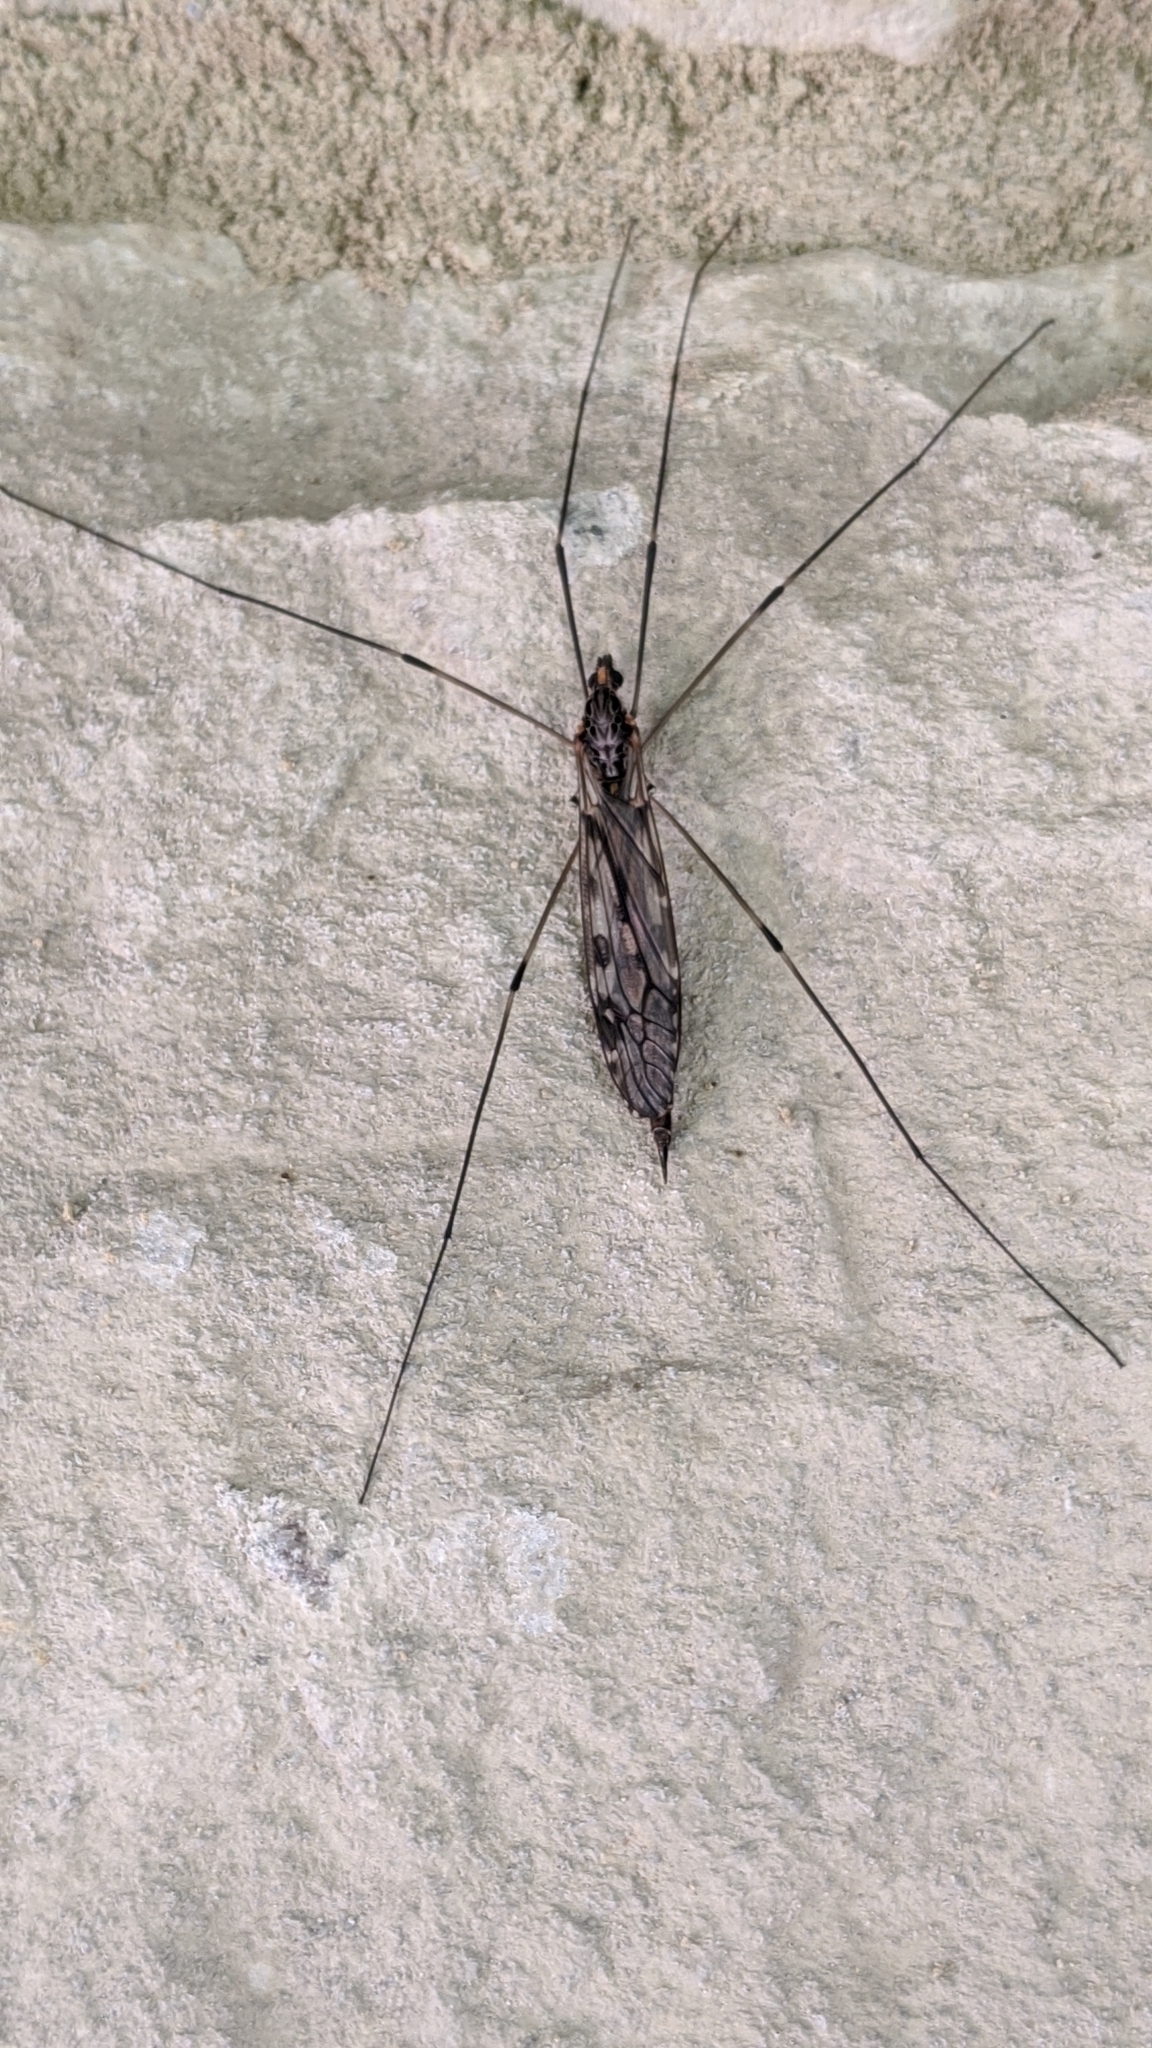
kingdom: Animalia
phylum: Arthropoda
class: Insecta
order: Diptera
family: Tipulidae
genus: Tipula
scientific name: Tipula abdominalis
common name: Giant crane fly
